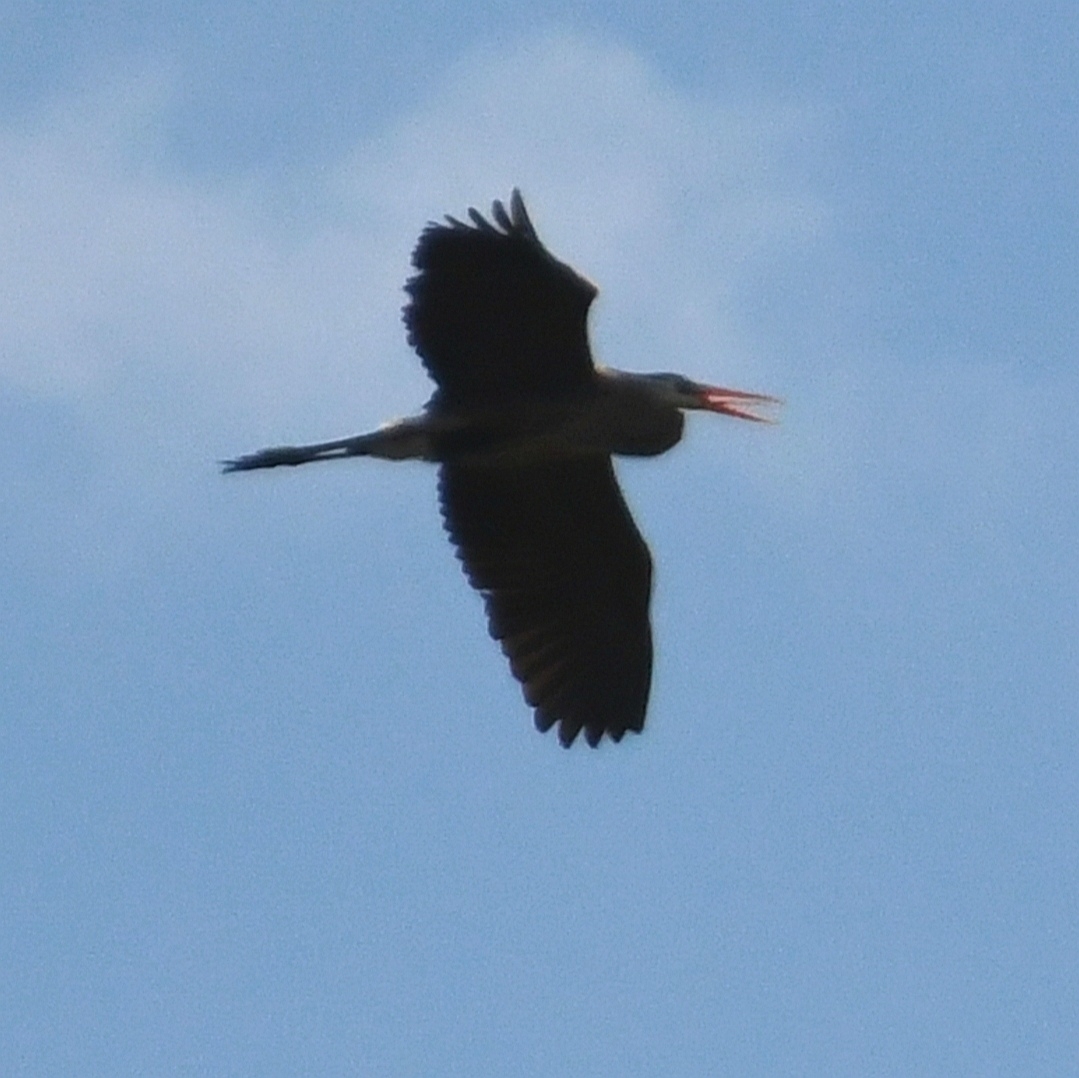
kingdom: Animalia
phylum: Chordata
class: Aves
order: Pelecaniformes
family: Ardeidae
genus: Ardea
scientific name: Ardea herodias
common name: Great blue heron
